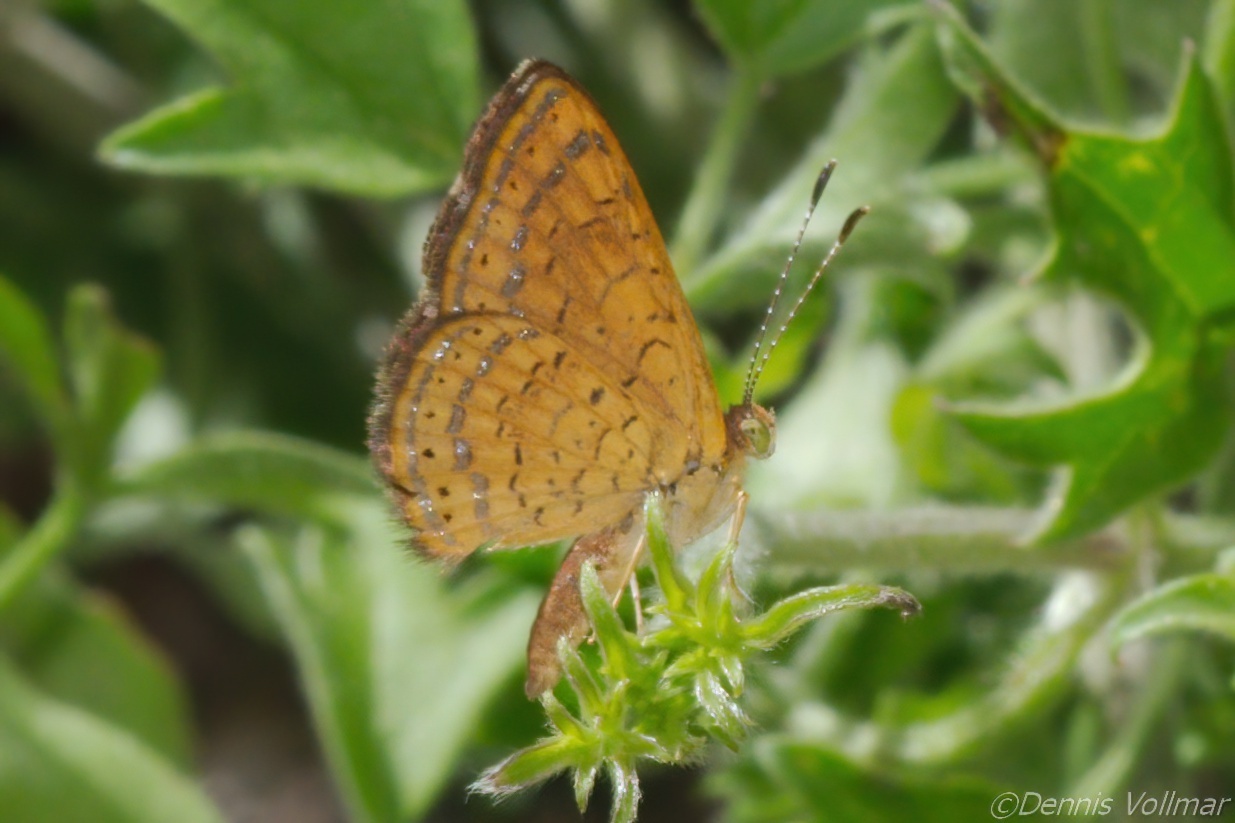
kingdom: Animalia
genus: Calephelis
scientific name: Calephelis nemesis
